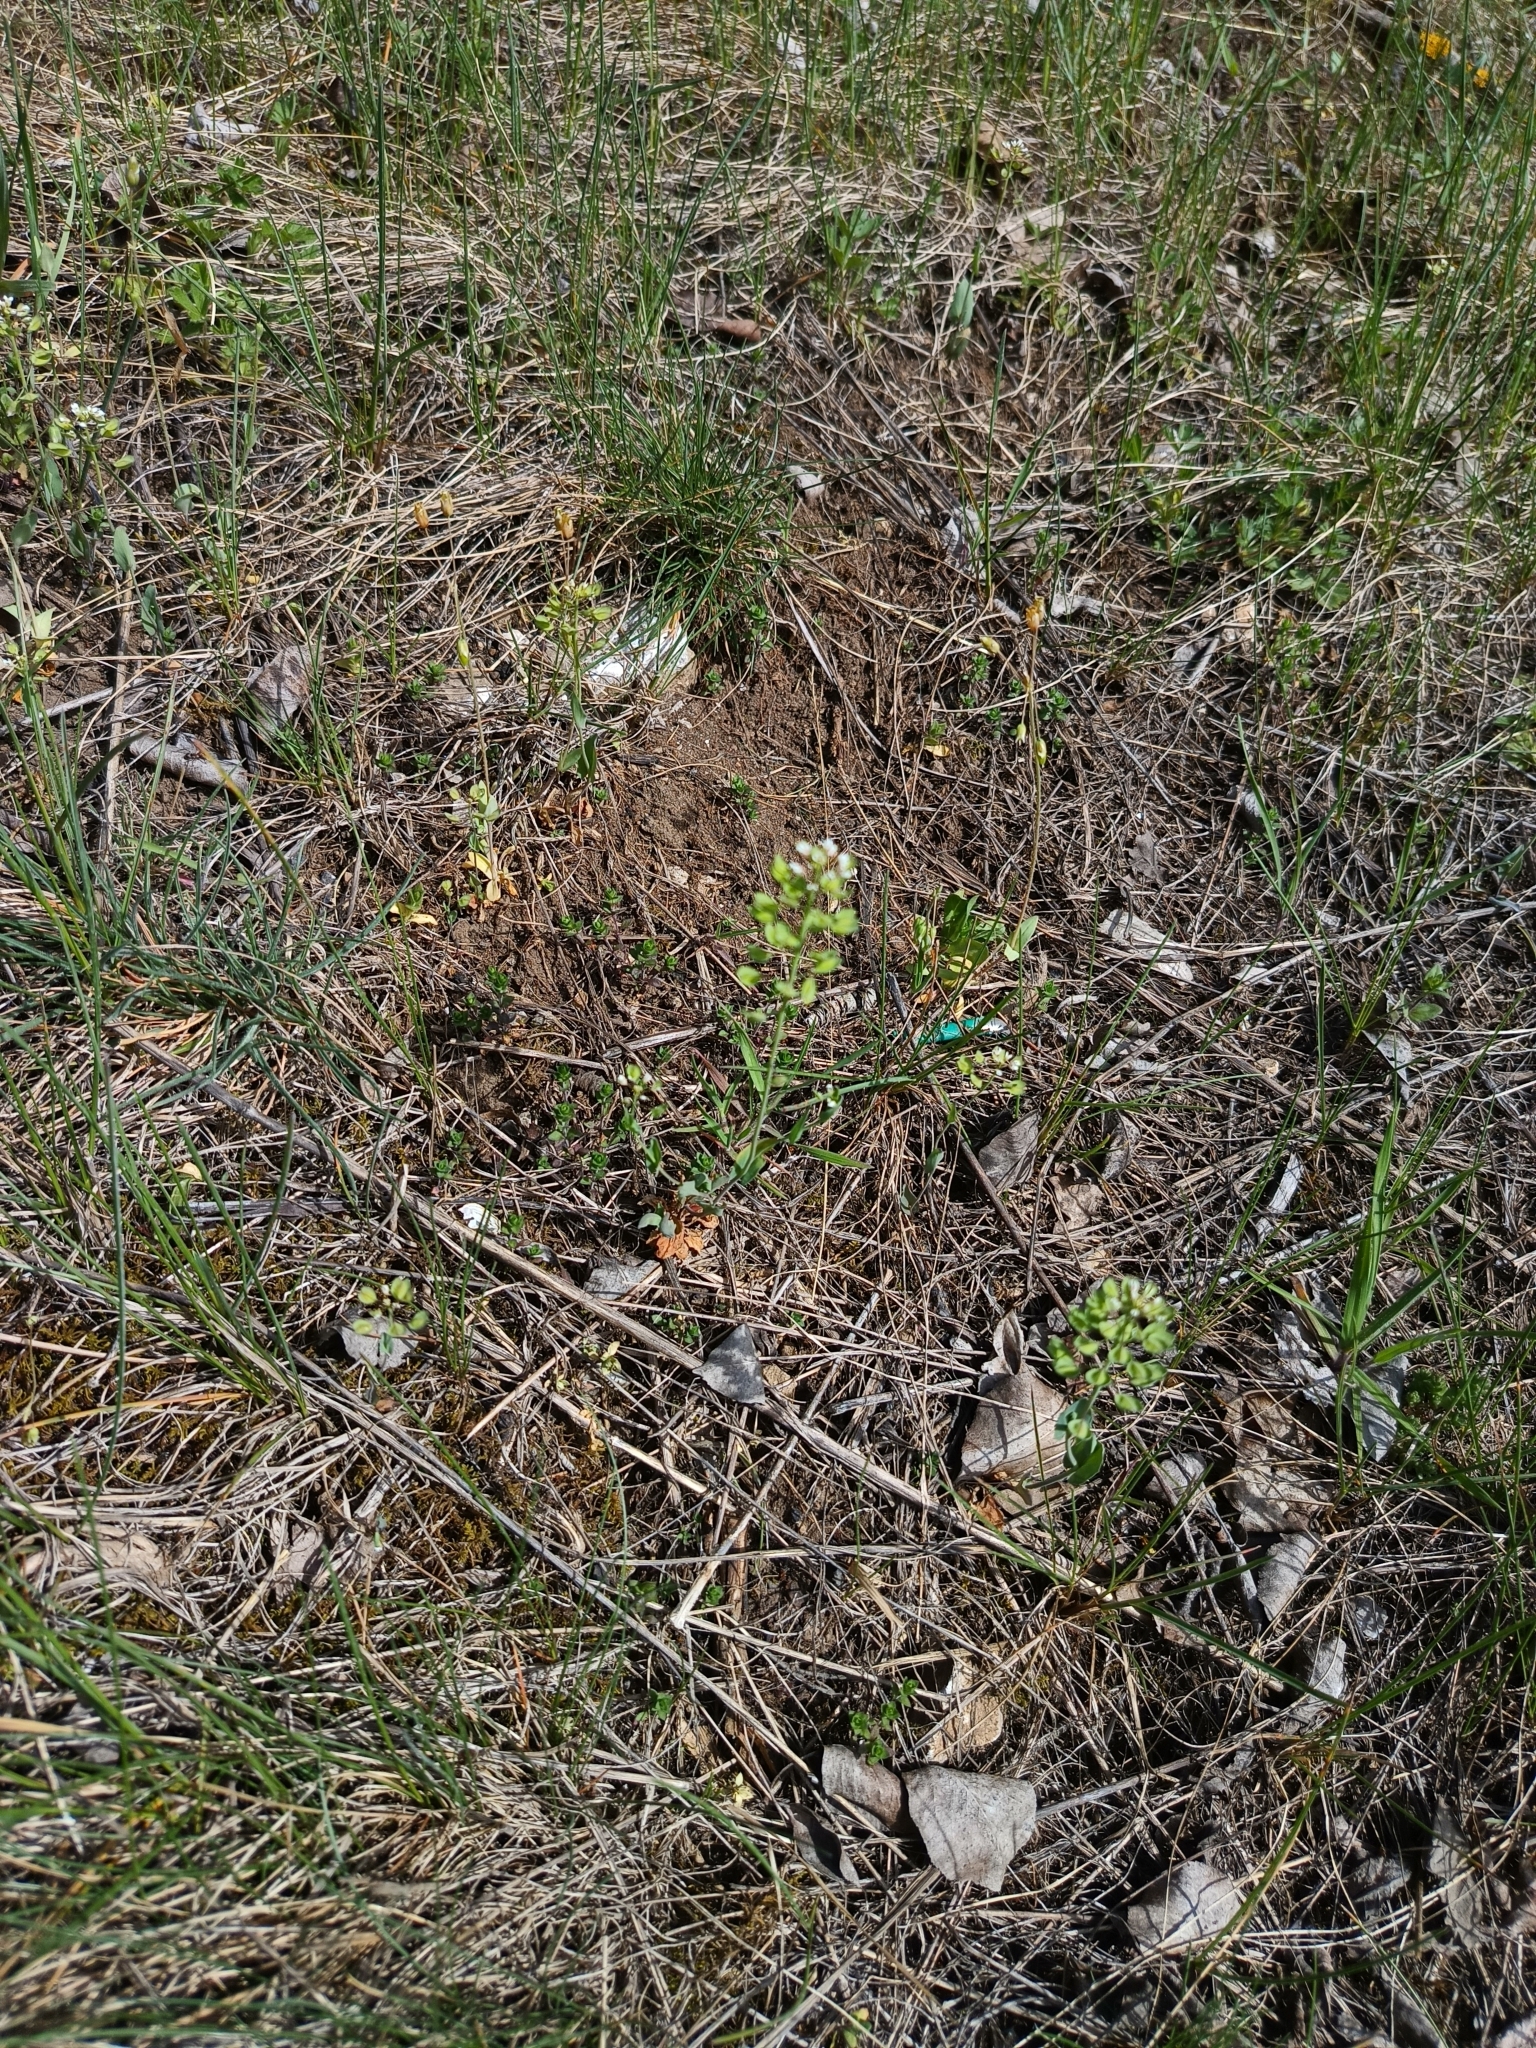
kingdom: Plantae
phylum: Tracheophyta
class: Magnoliopsida
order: Brassicales
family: Brassicaceae
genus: Noccaea
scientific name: Noccaea perfoliata
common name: Perfoliate pennycress
